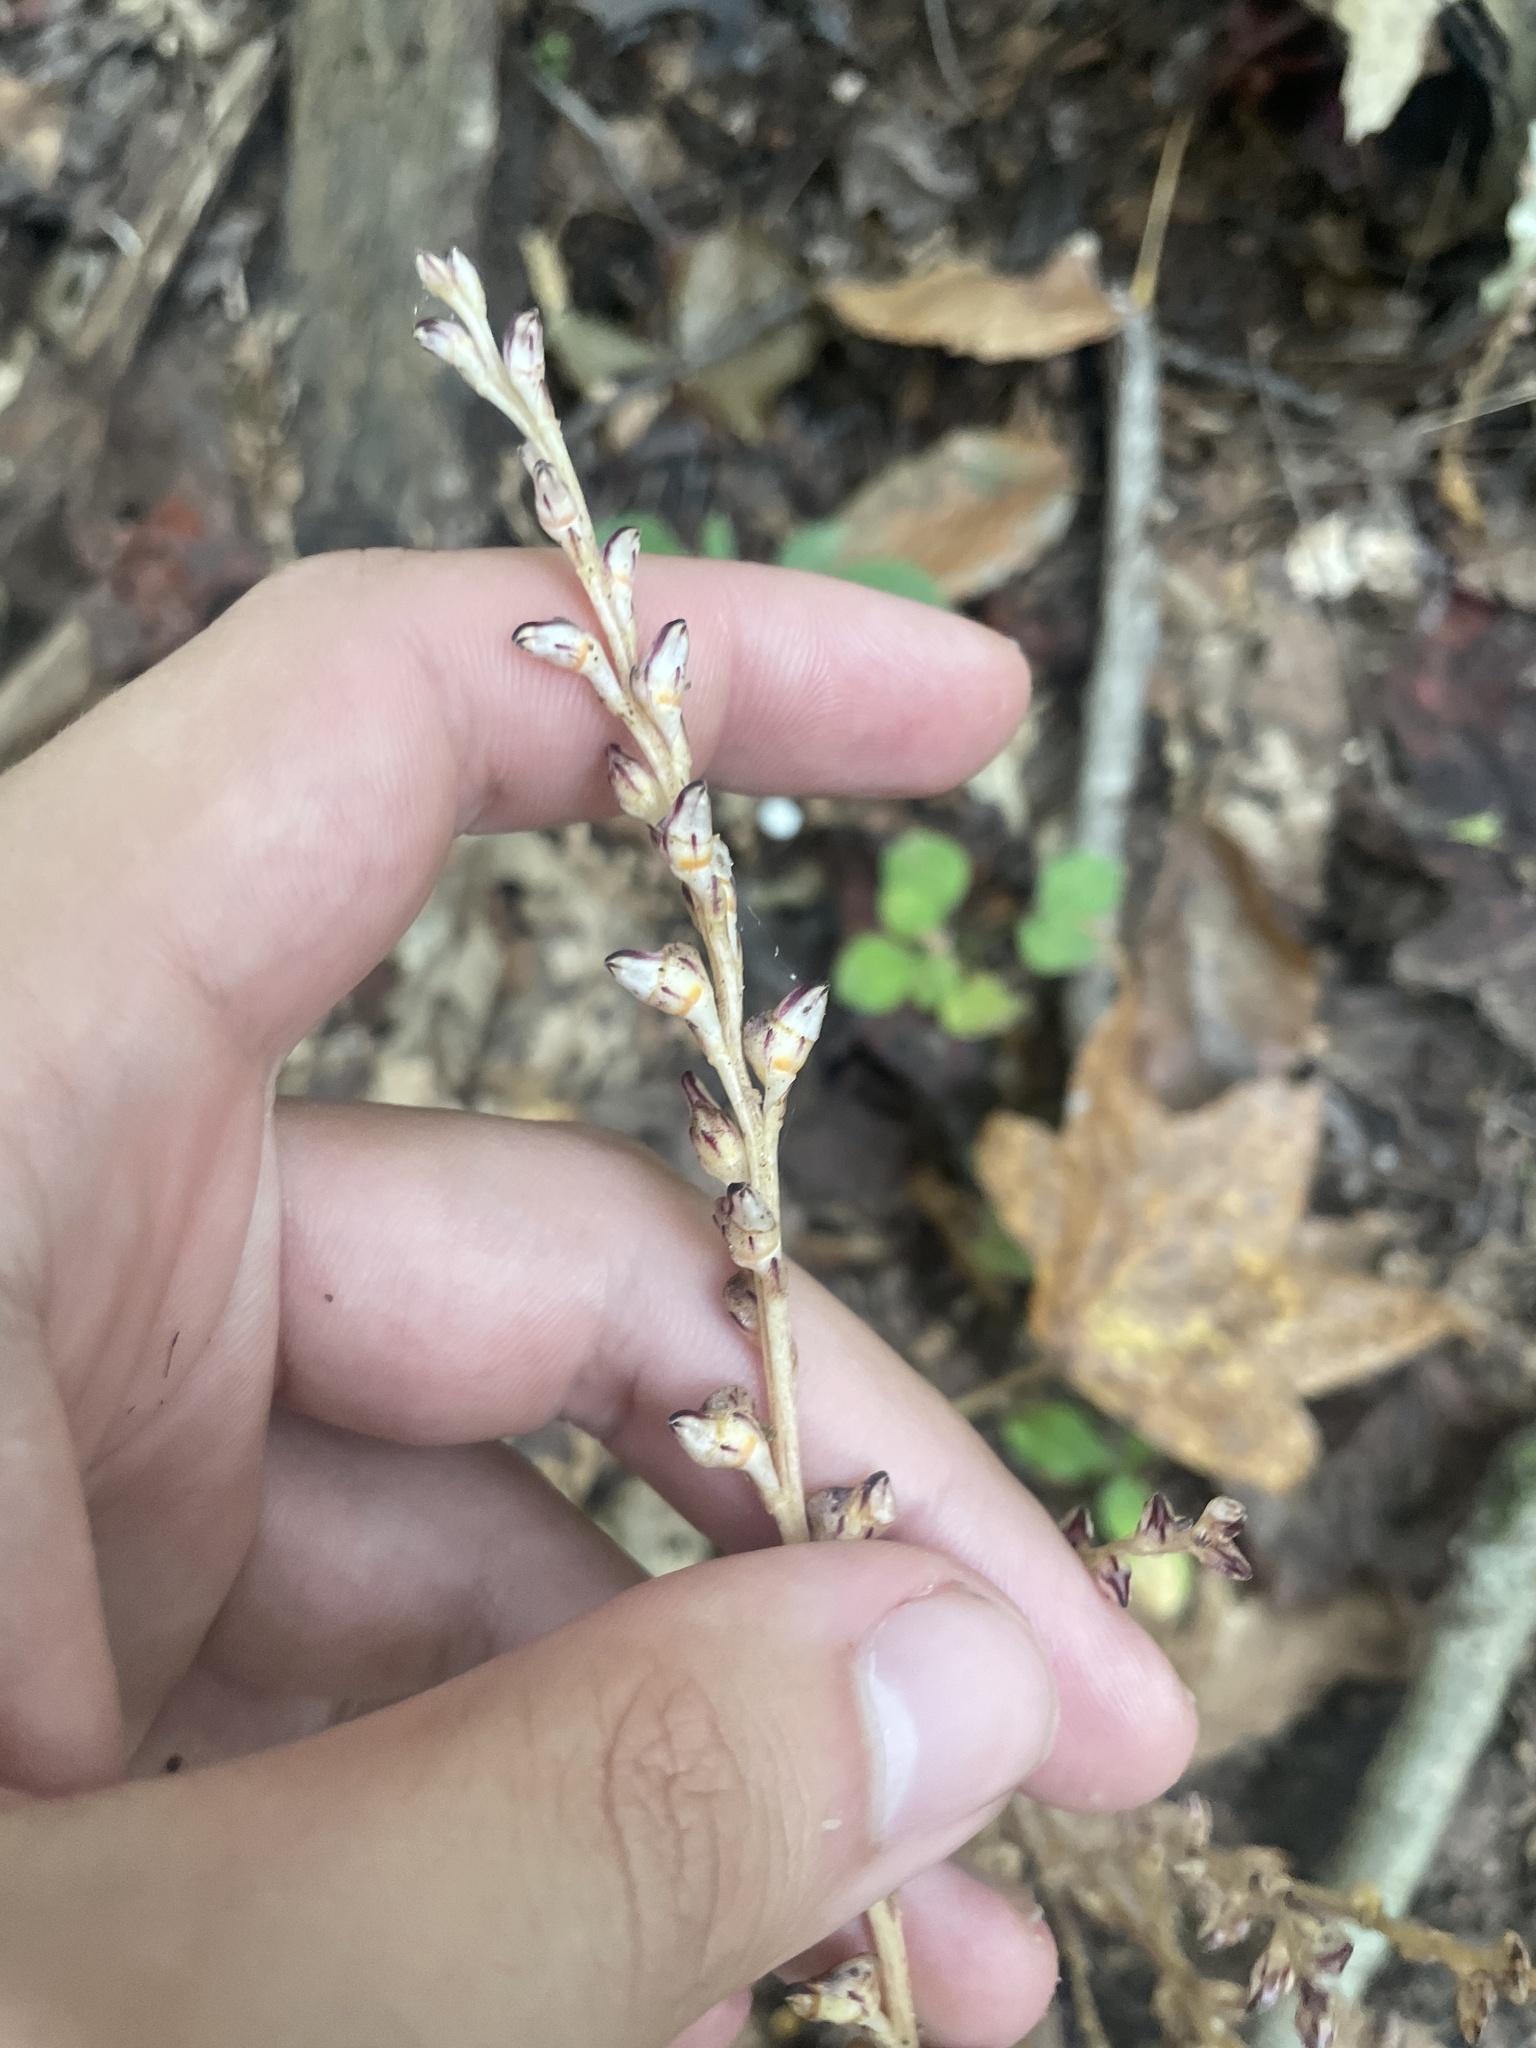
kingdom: Plantae
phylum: Tracheophyta
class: Magnoliopsida
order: Lamiales
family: Orobanchaceae
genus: Epifagus
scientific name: Epifagus virginiana
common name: Beechdrops
